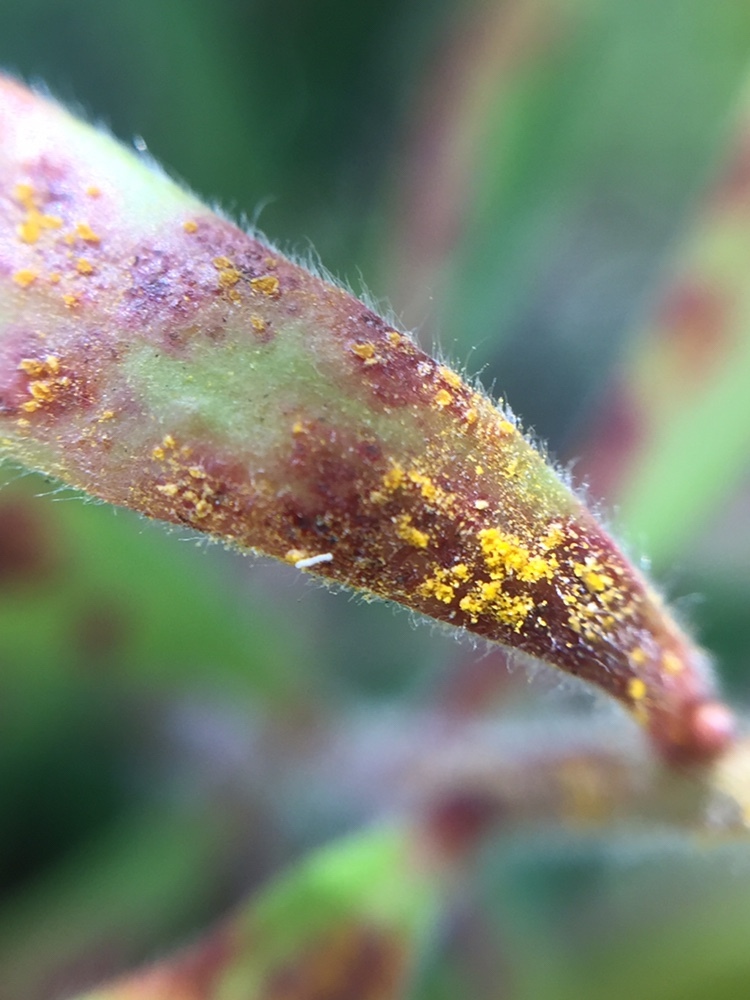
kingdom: Fungi
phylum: Basidiomycota
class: Pucciniomycetes
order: Pucciniales
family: Sphaerophragmiaceae
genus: Austropuccinia
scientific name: Austropuccinia psidii
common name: Myrtle rust
